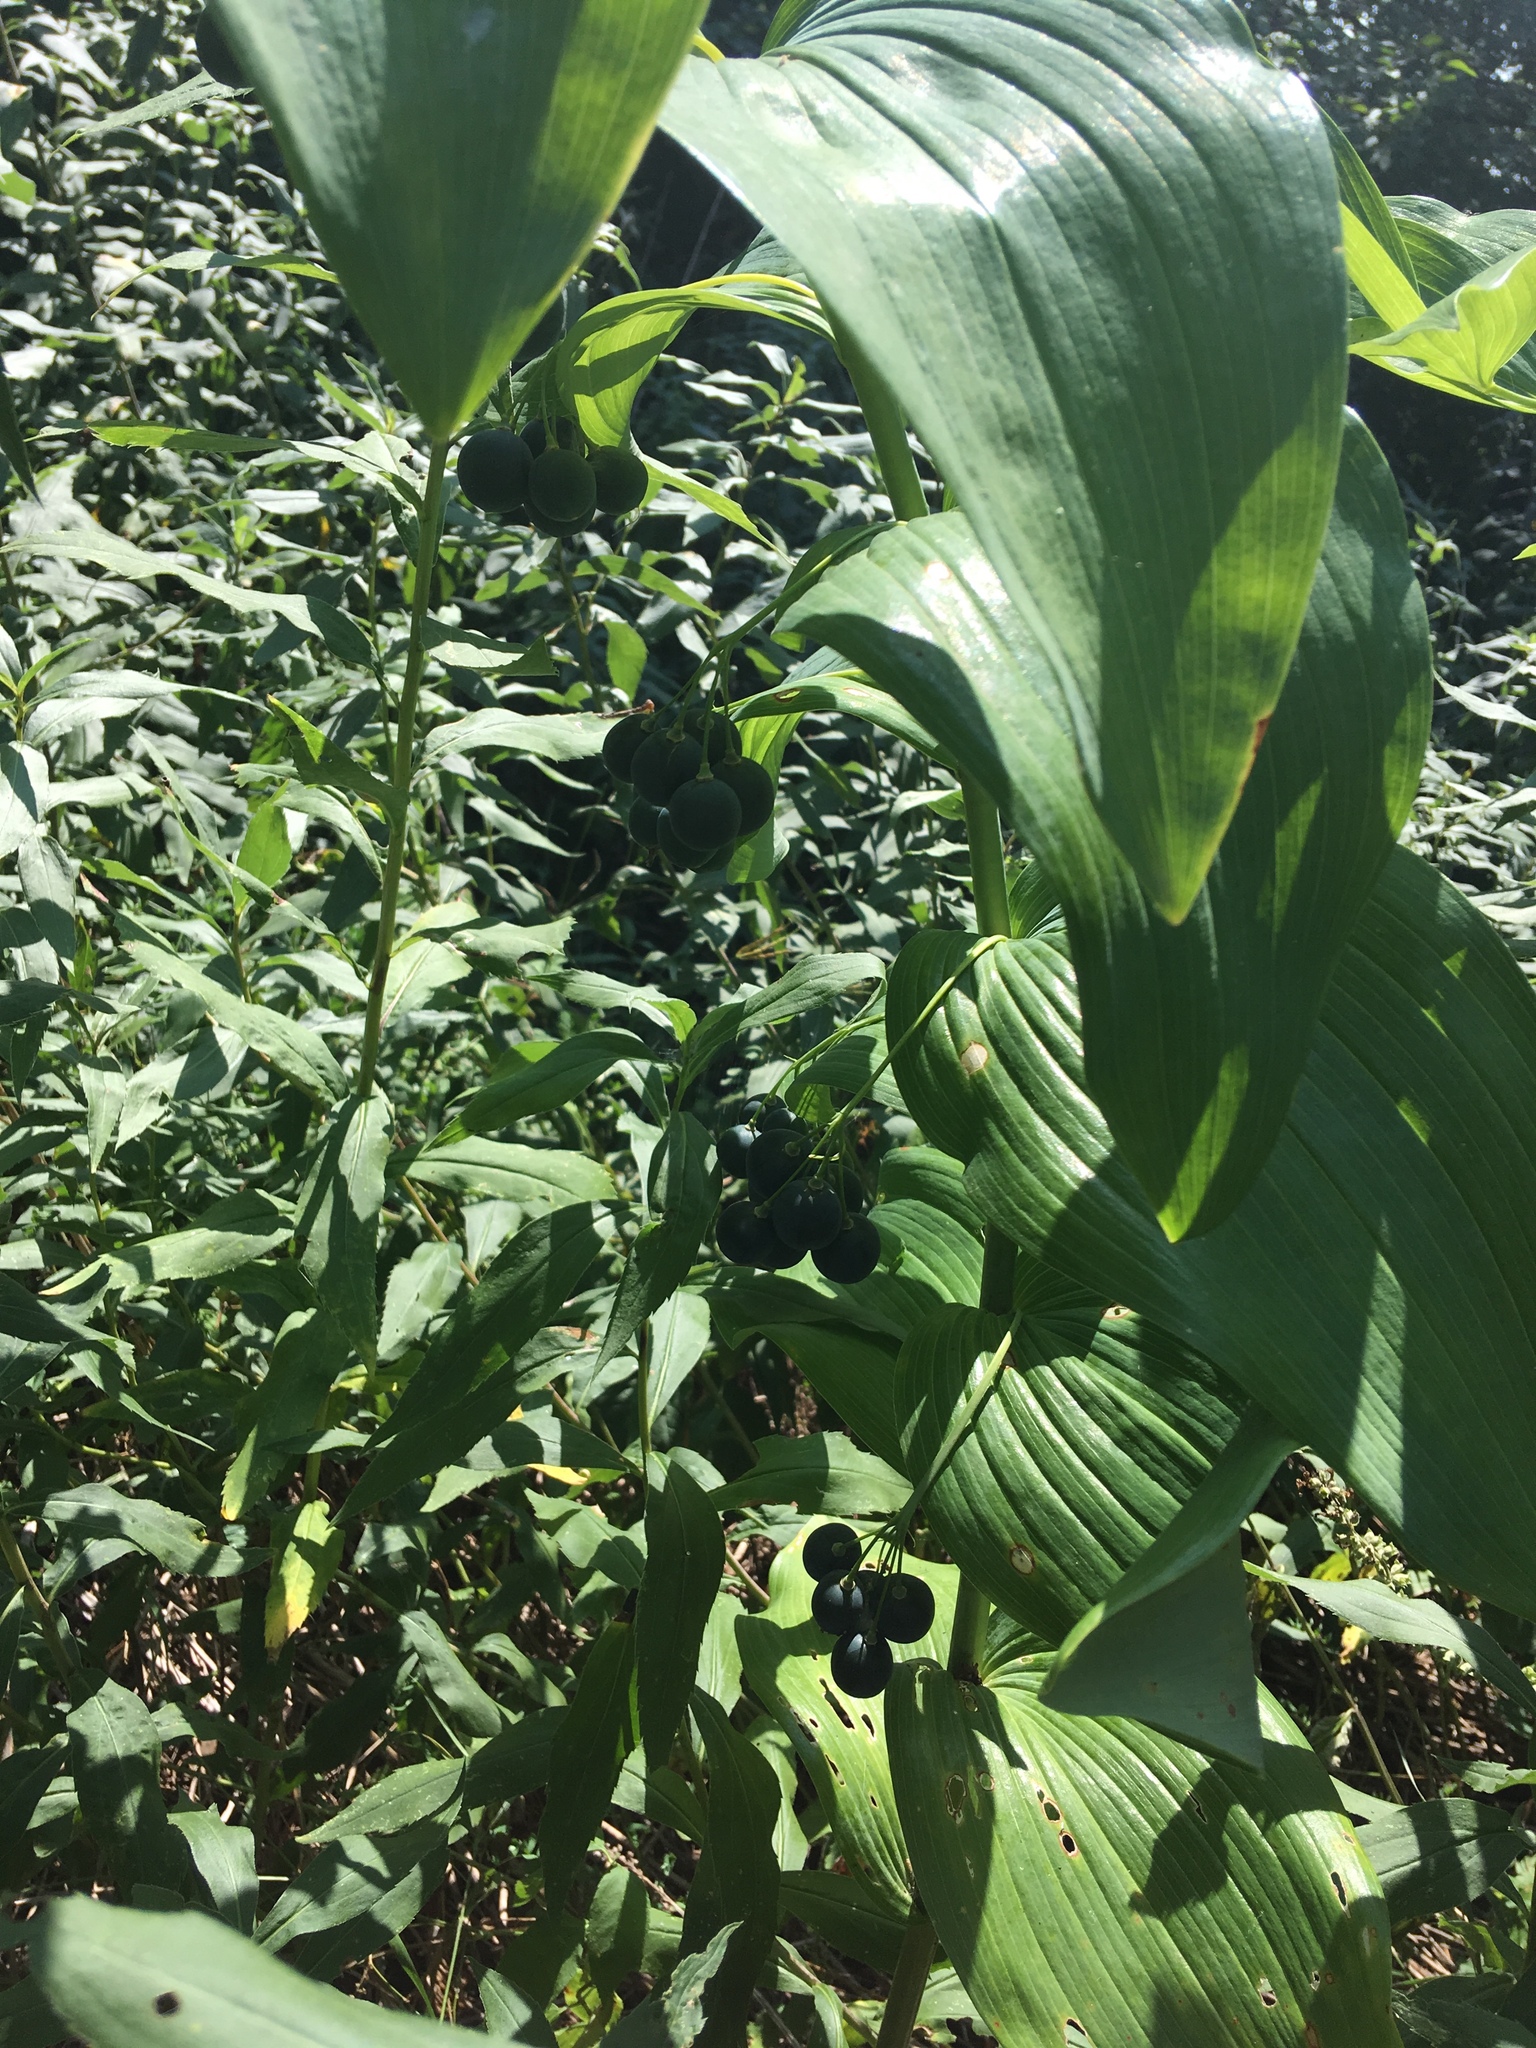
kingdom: Plantae
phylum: Tracheophyta
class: Liliopsida
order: Asparagales
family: Asparagaceae
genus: Polygonatum
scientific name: Polygonatum biflorum
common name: American solomon's-seal
